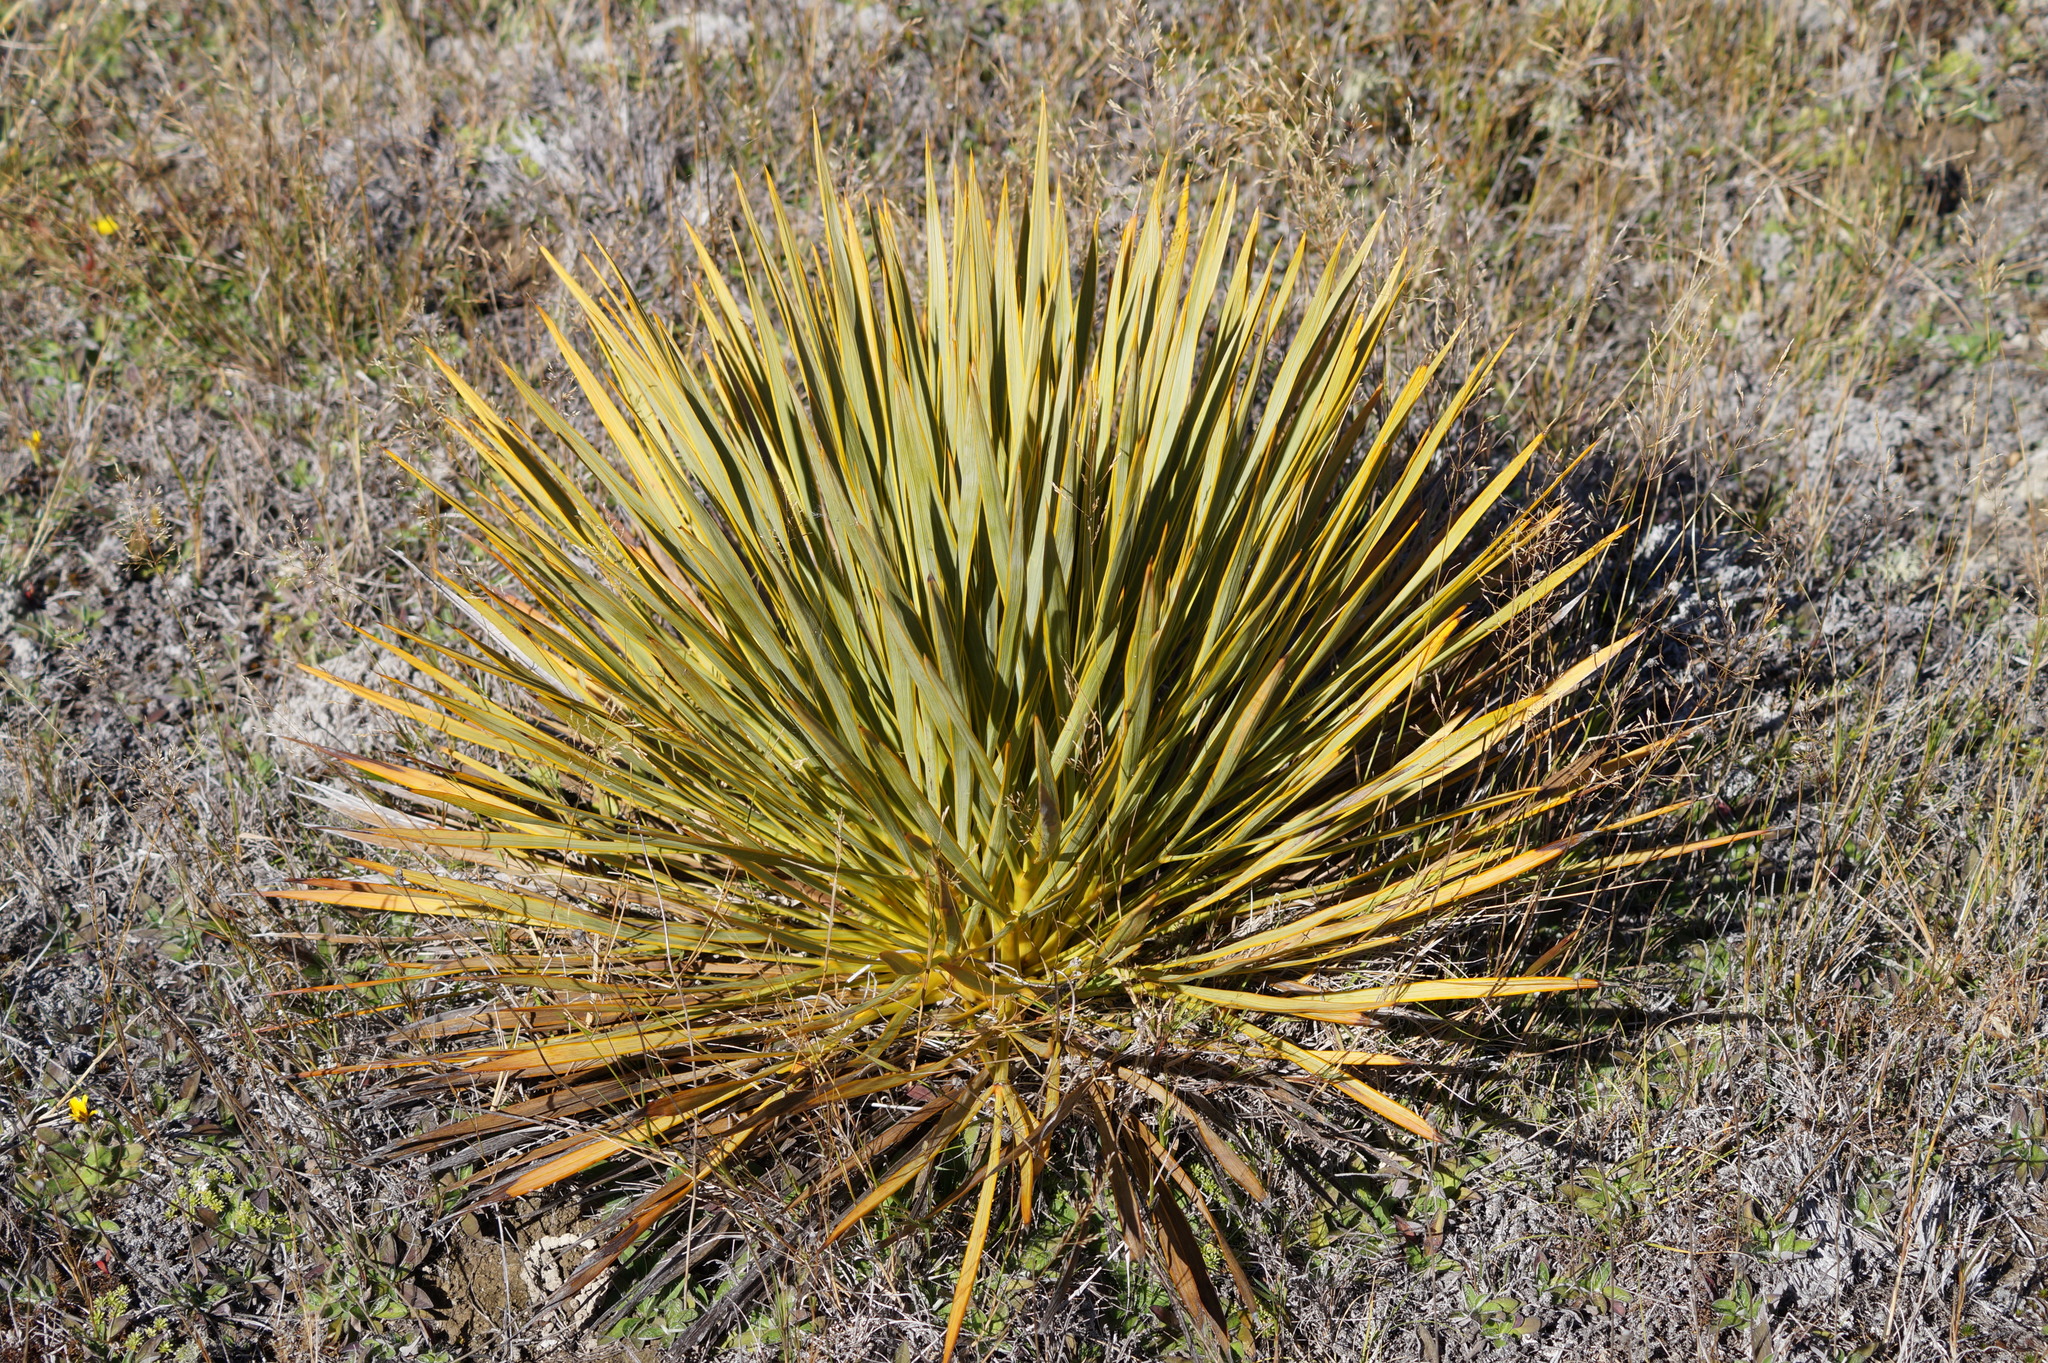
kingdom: Plantae
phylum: Tracheophyta
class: Magnoliopsida
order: Apiales
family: Apiaceae
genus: Aciphylla
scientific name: Aciphylla aurea
